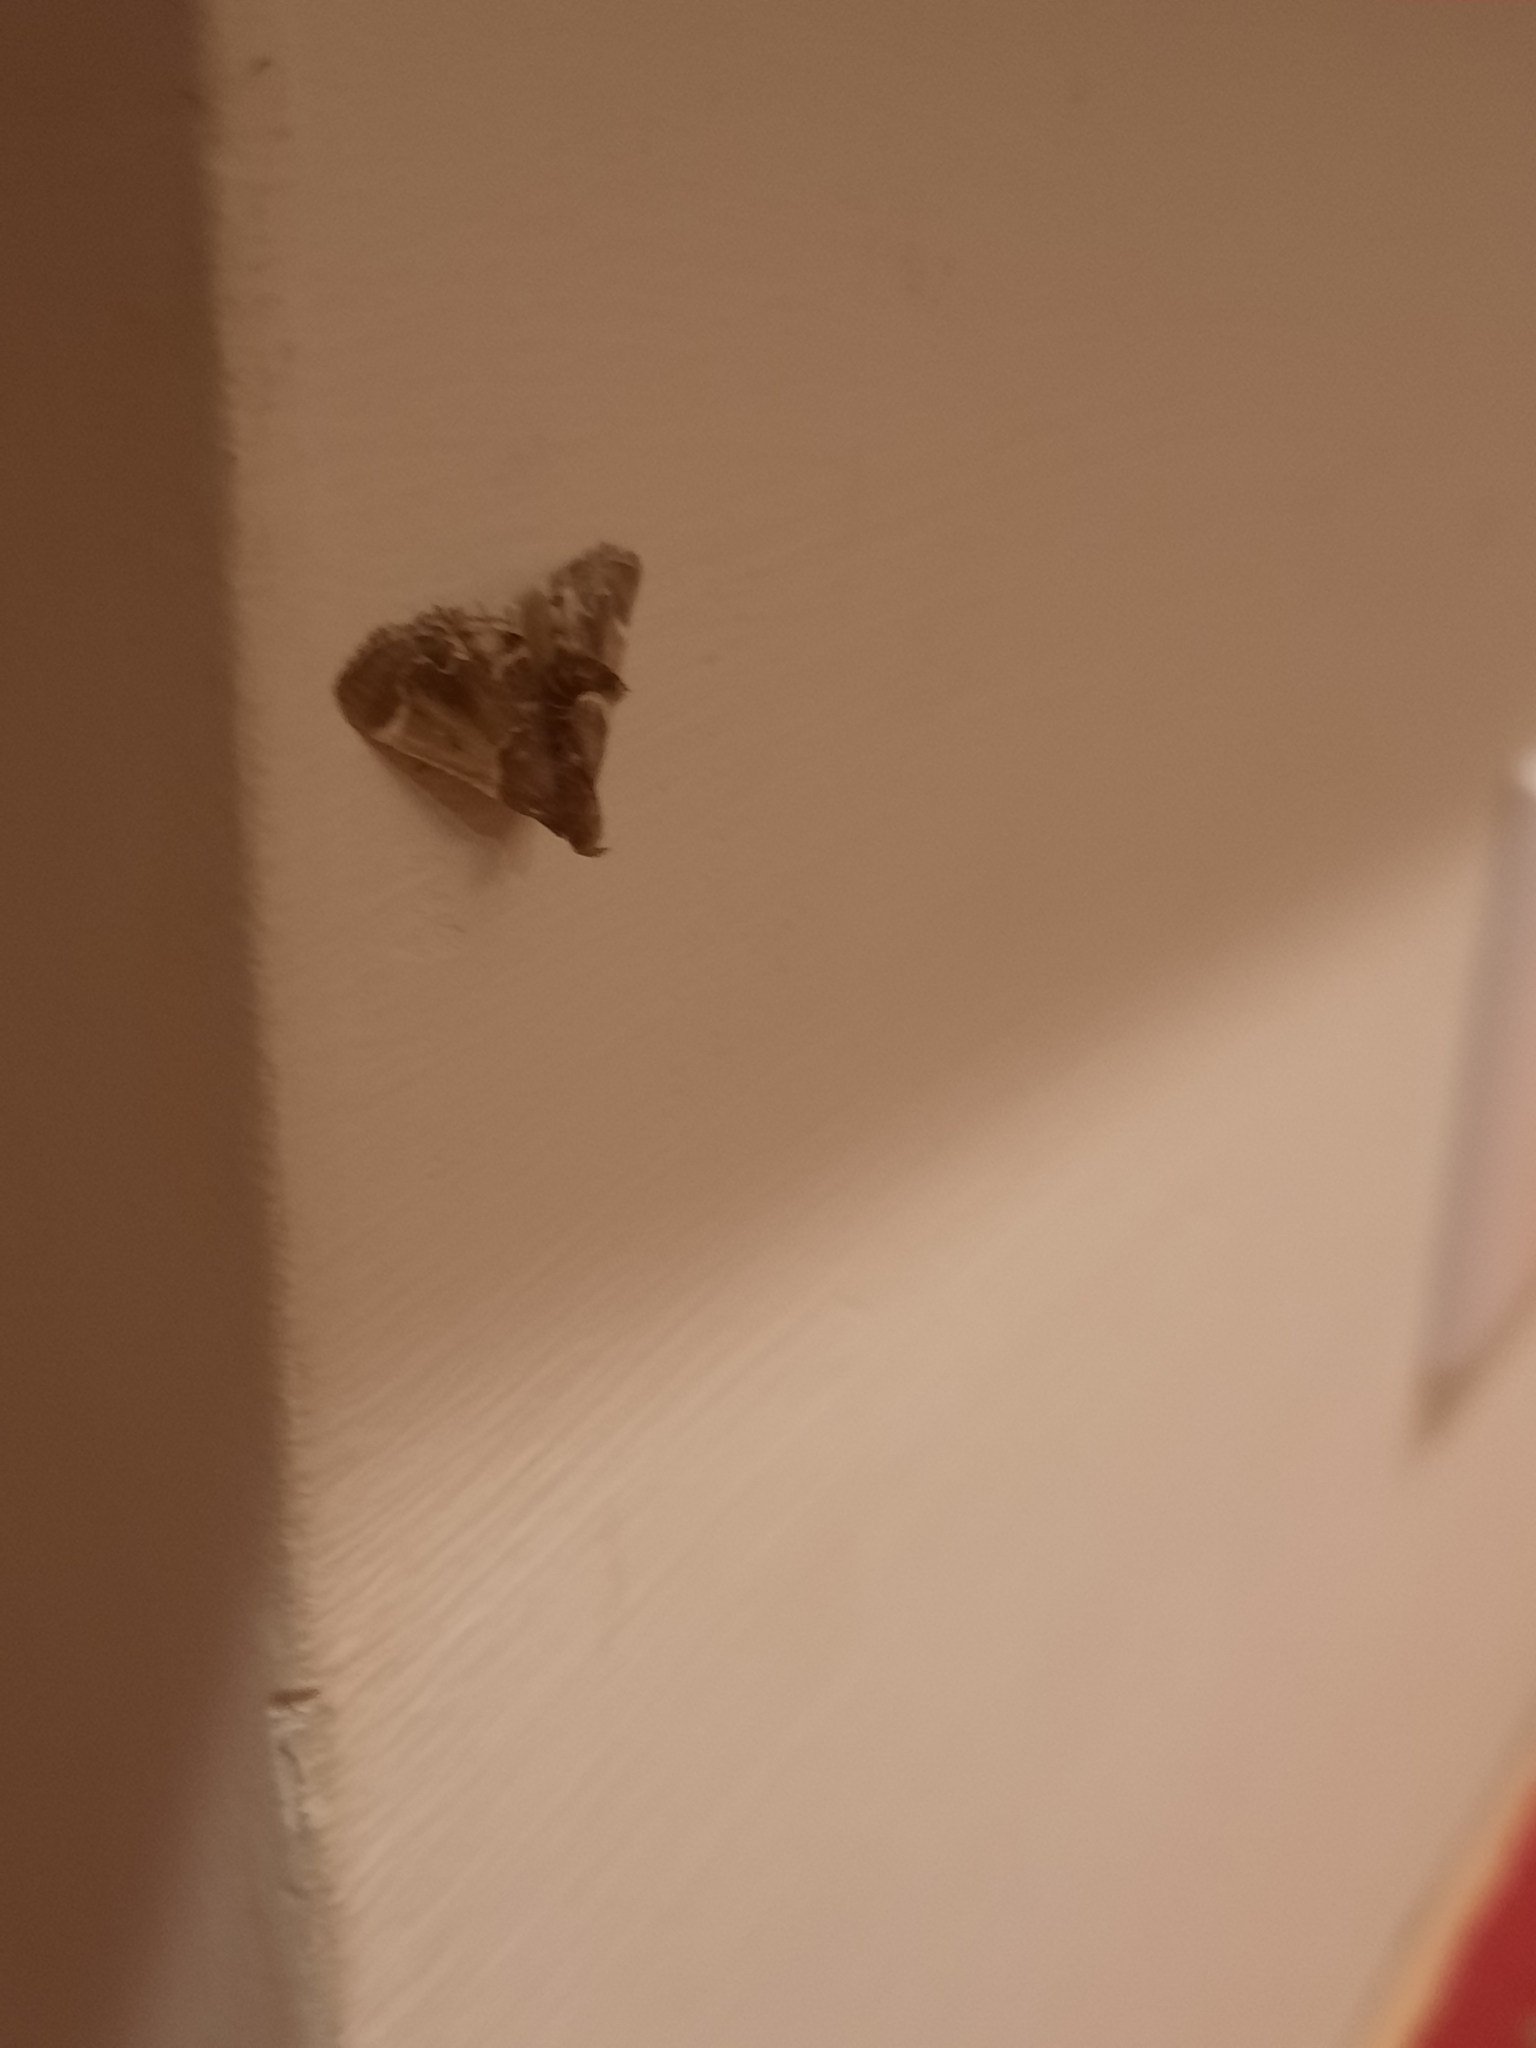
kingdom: Animalia
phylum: Arthropoda
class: Insecta
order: Lepidoptera
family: Pyralidae
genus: Pyralis
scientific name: Pyralis farinalis
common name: Meal moth
